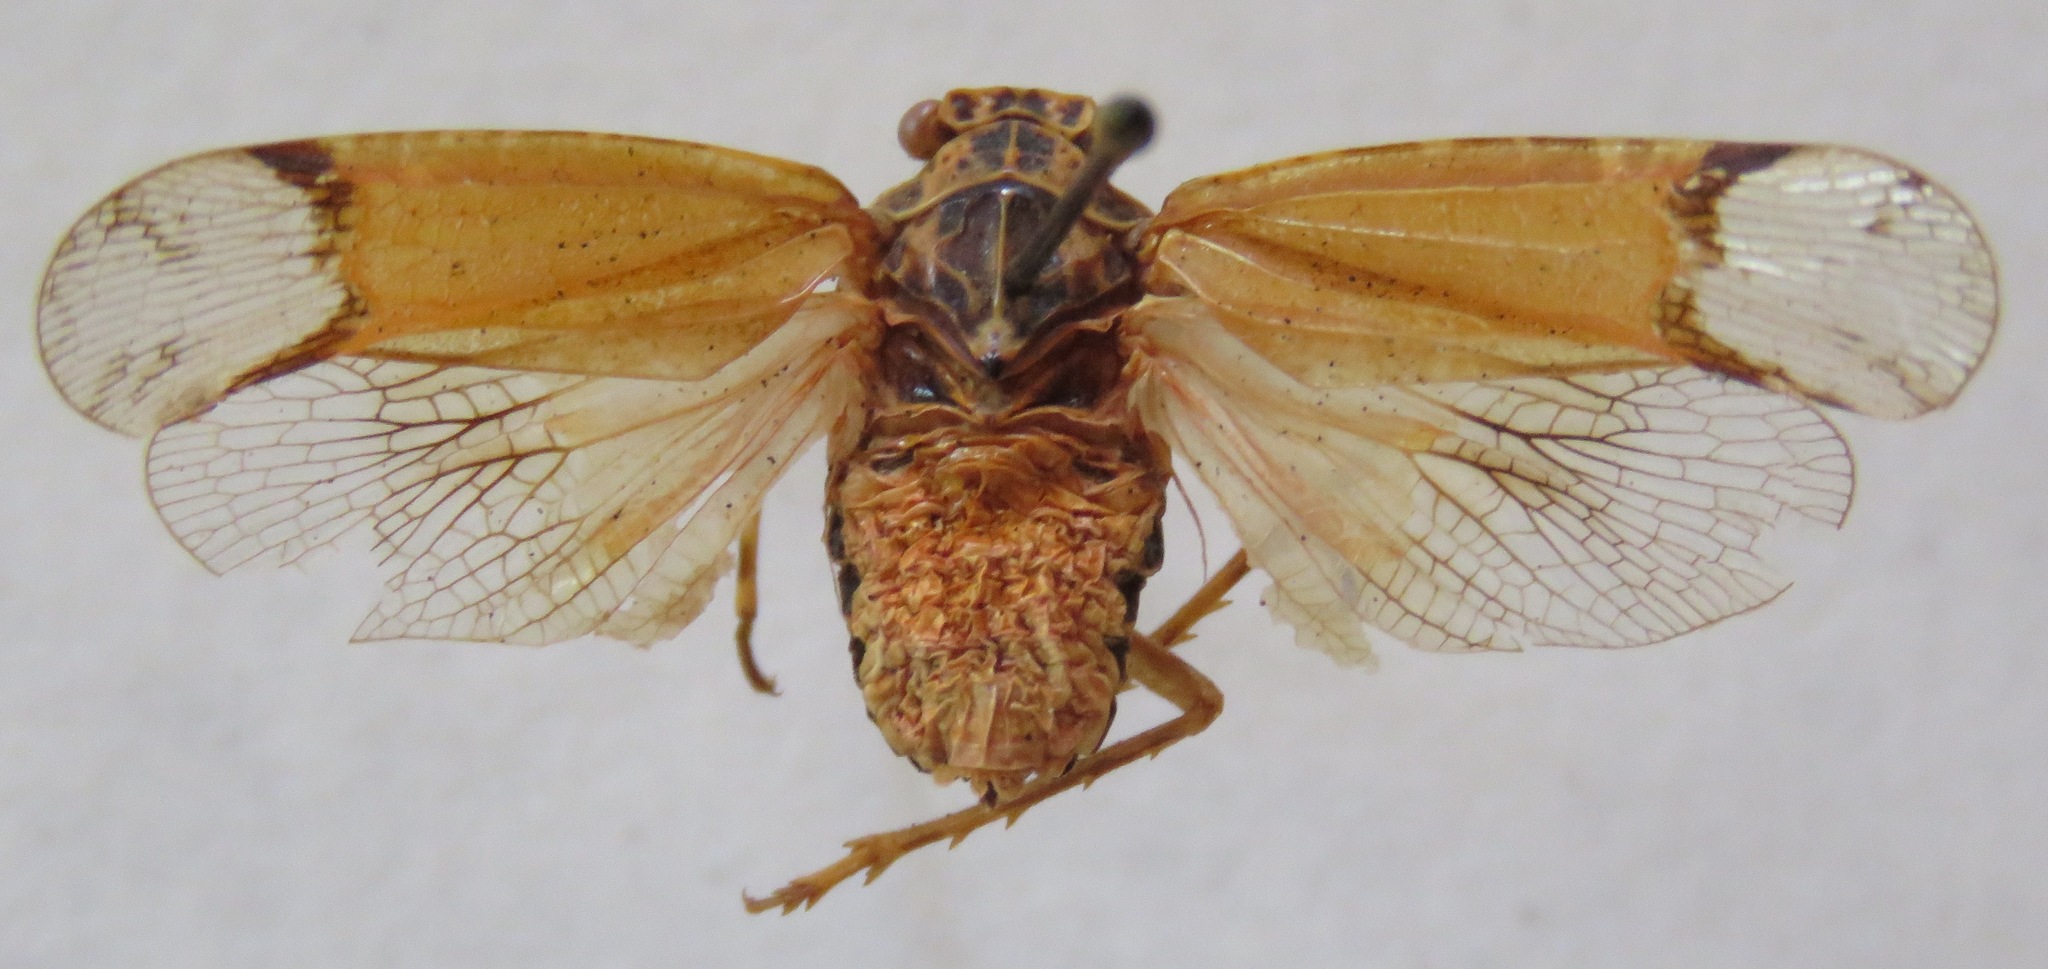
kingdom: Animalia
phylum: Arthropoda
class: Insecta
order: Hemiptera
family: Fulgoridae
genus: Hypaepa
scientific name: Hypaepa illuminata
